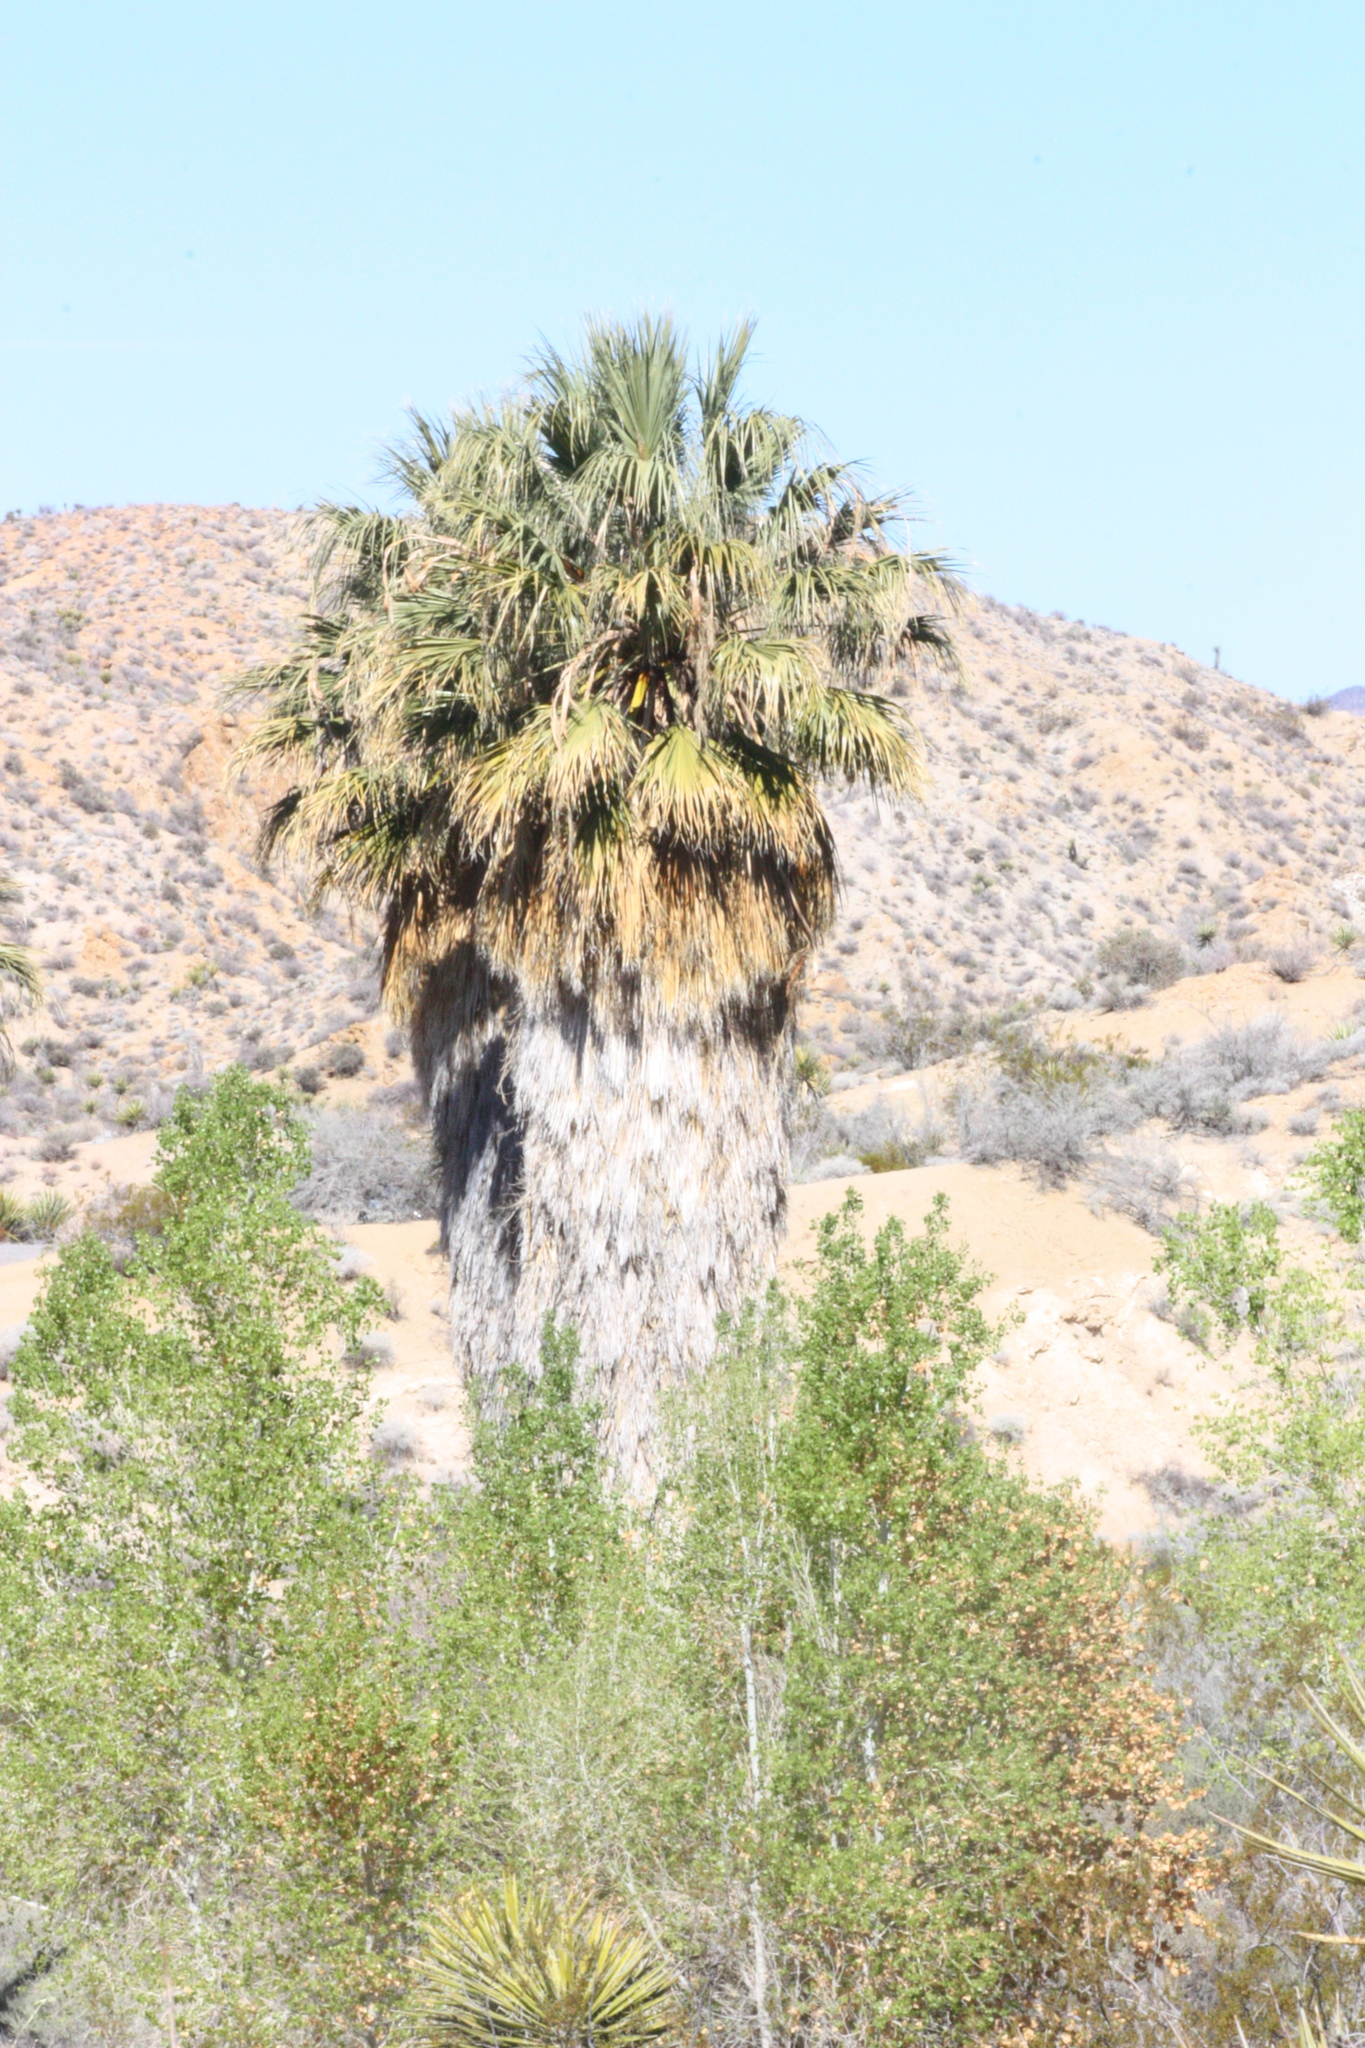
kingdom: Plantae
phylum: Tracheophyta
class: Liliopsida
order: Arecales
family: Arecaceae
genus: Washingtonia
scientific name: Washingtonia filifera
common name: California fan palm
